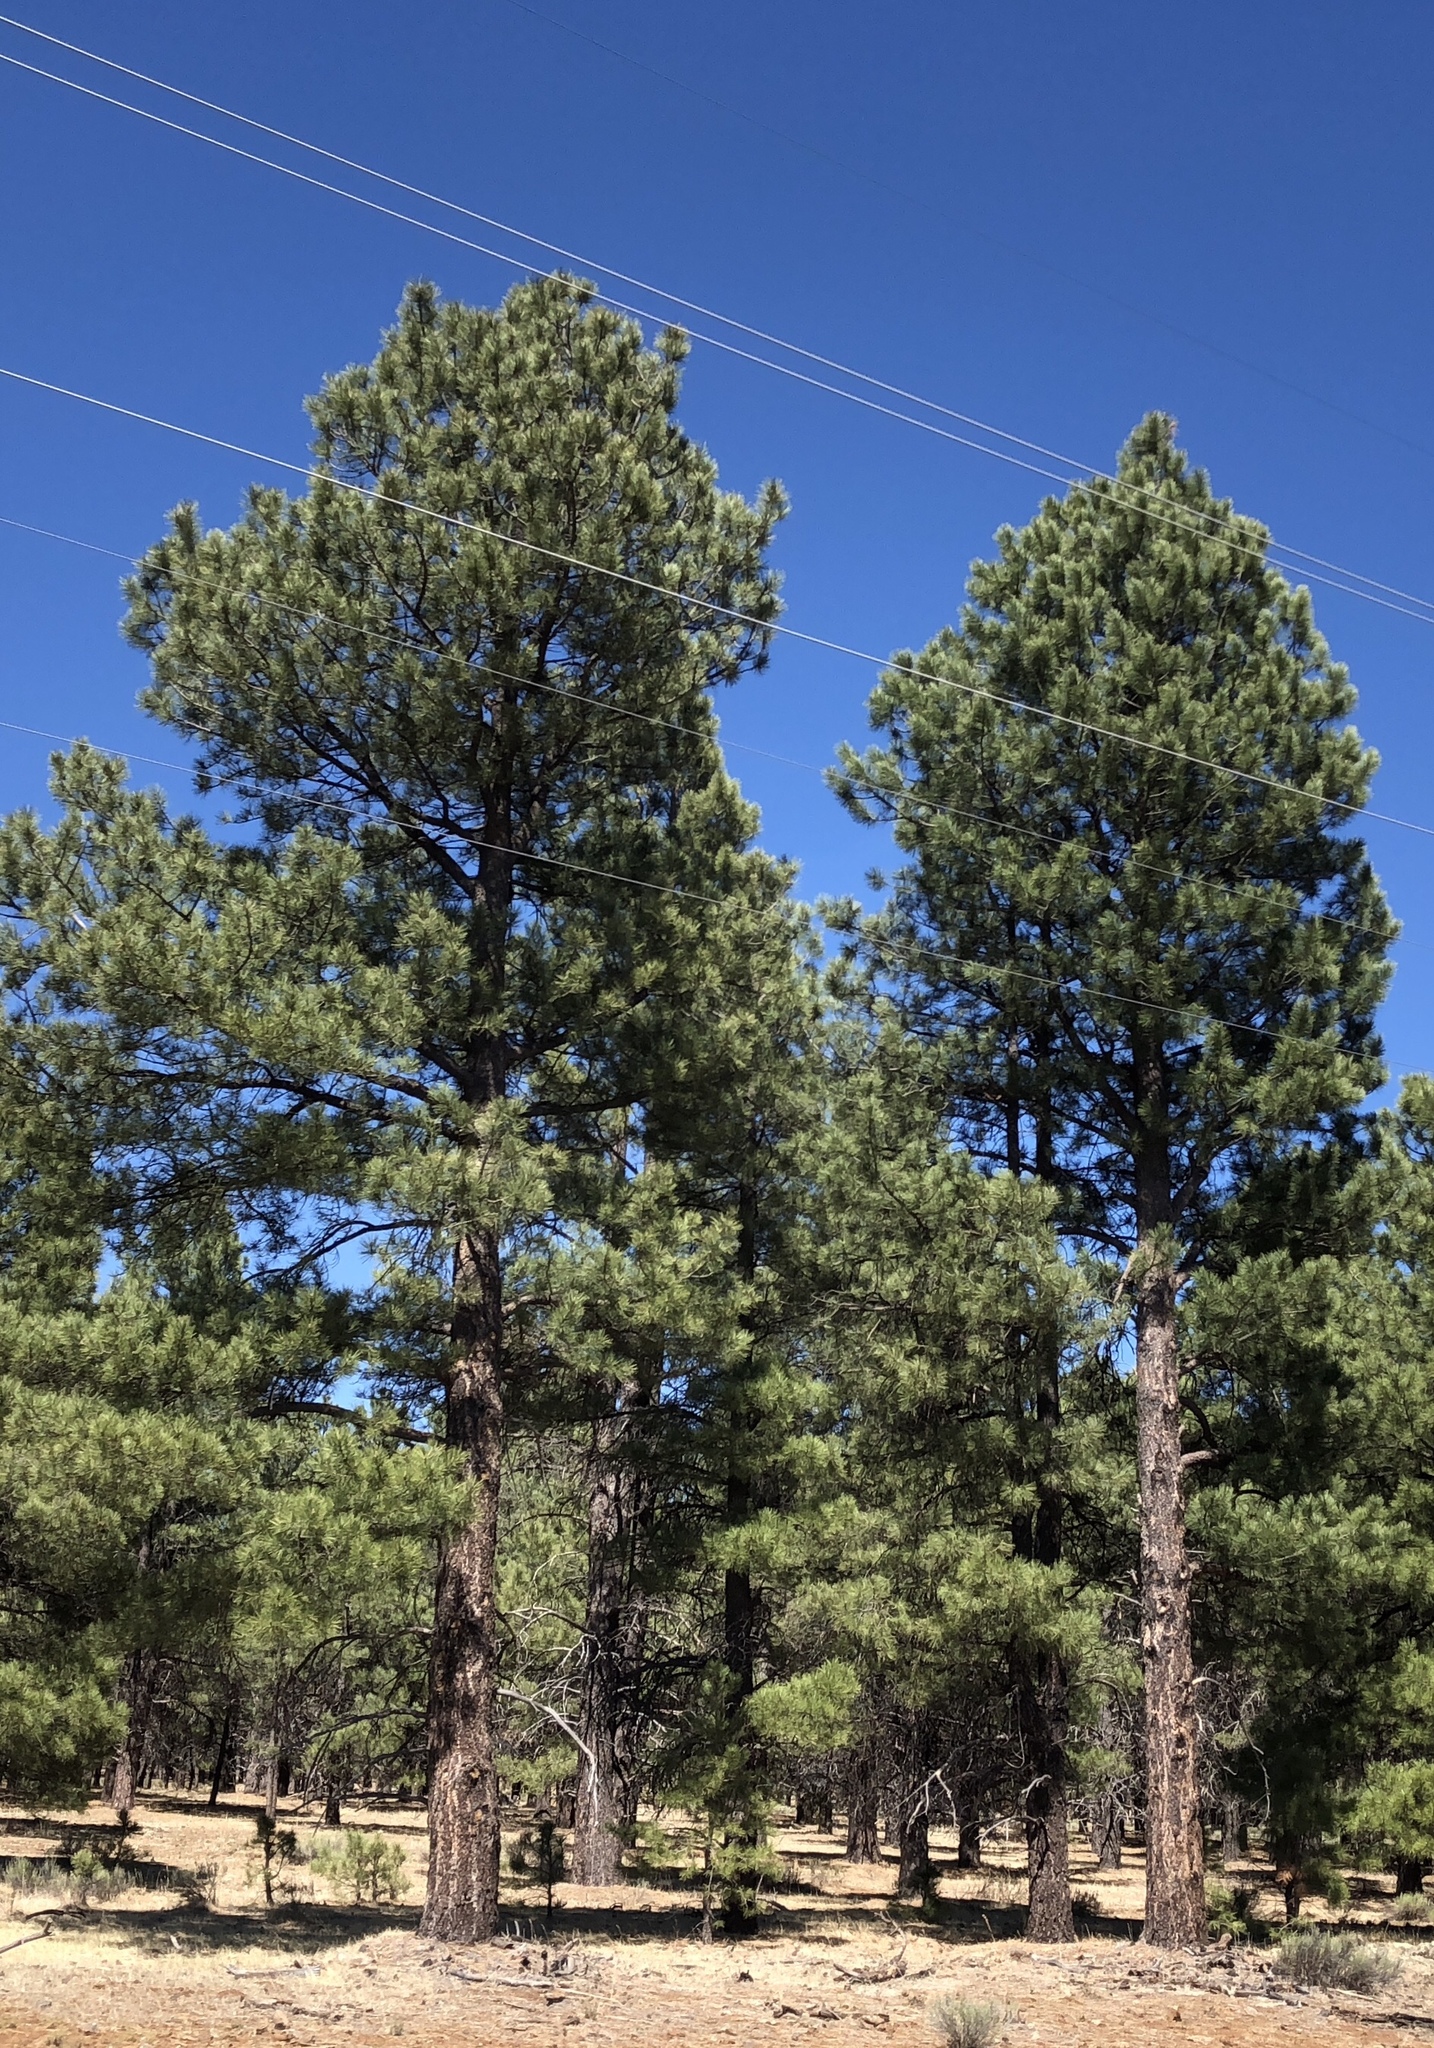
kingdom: Plantae
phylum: Tracheophyta
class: Pinopsida
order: Pinales
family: Pinaceae
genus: Pinus
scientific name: Pinus ponderosa
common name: Western yellow-pine
